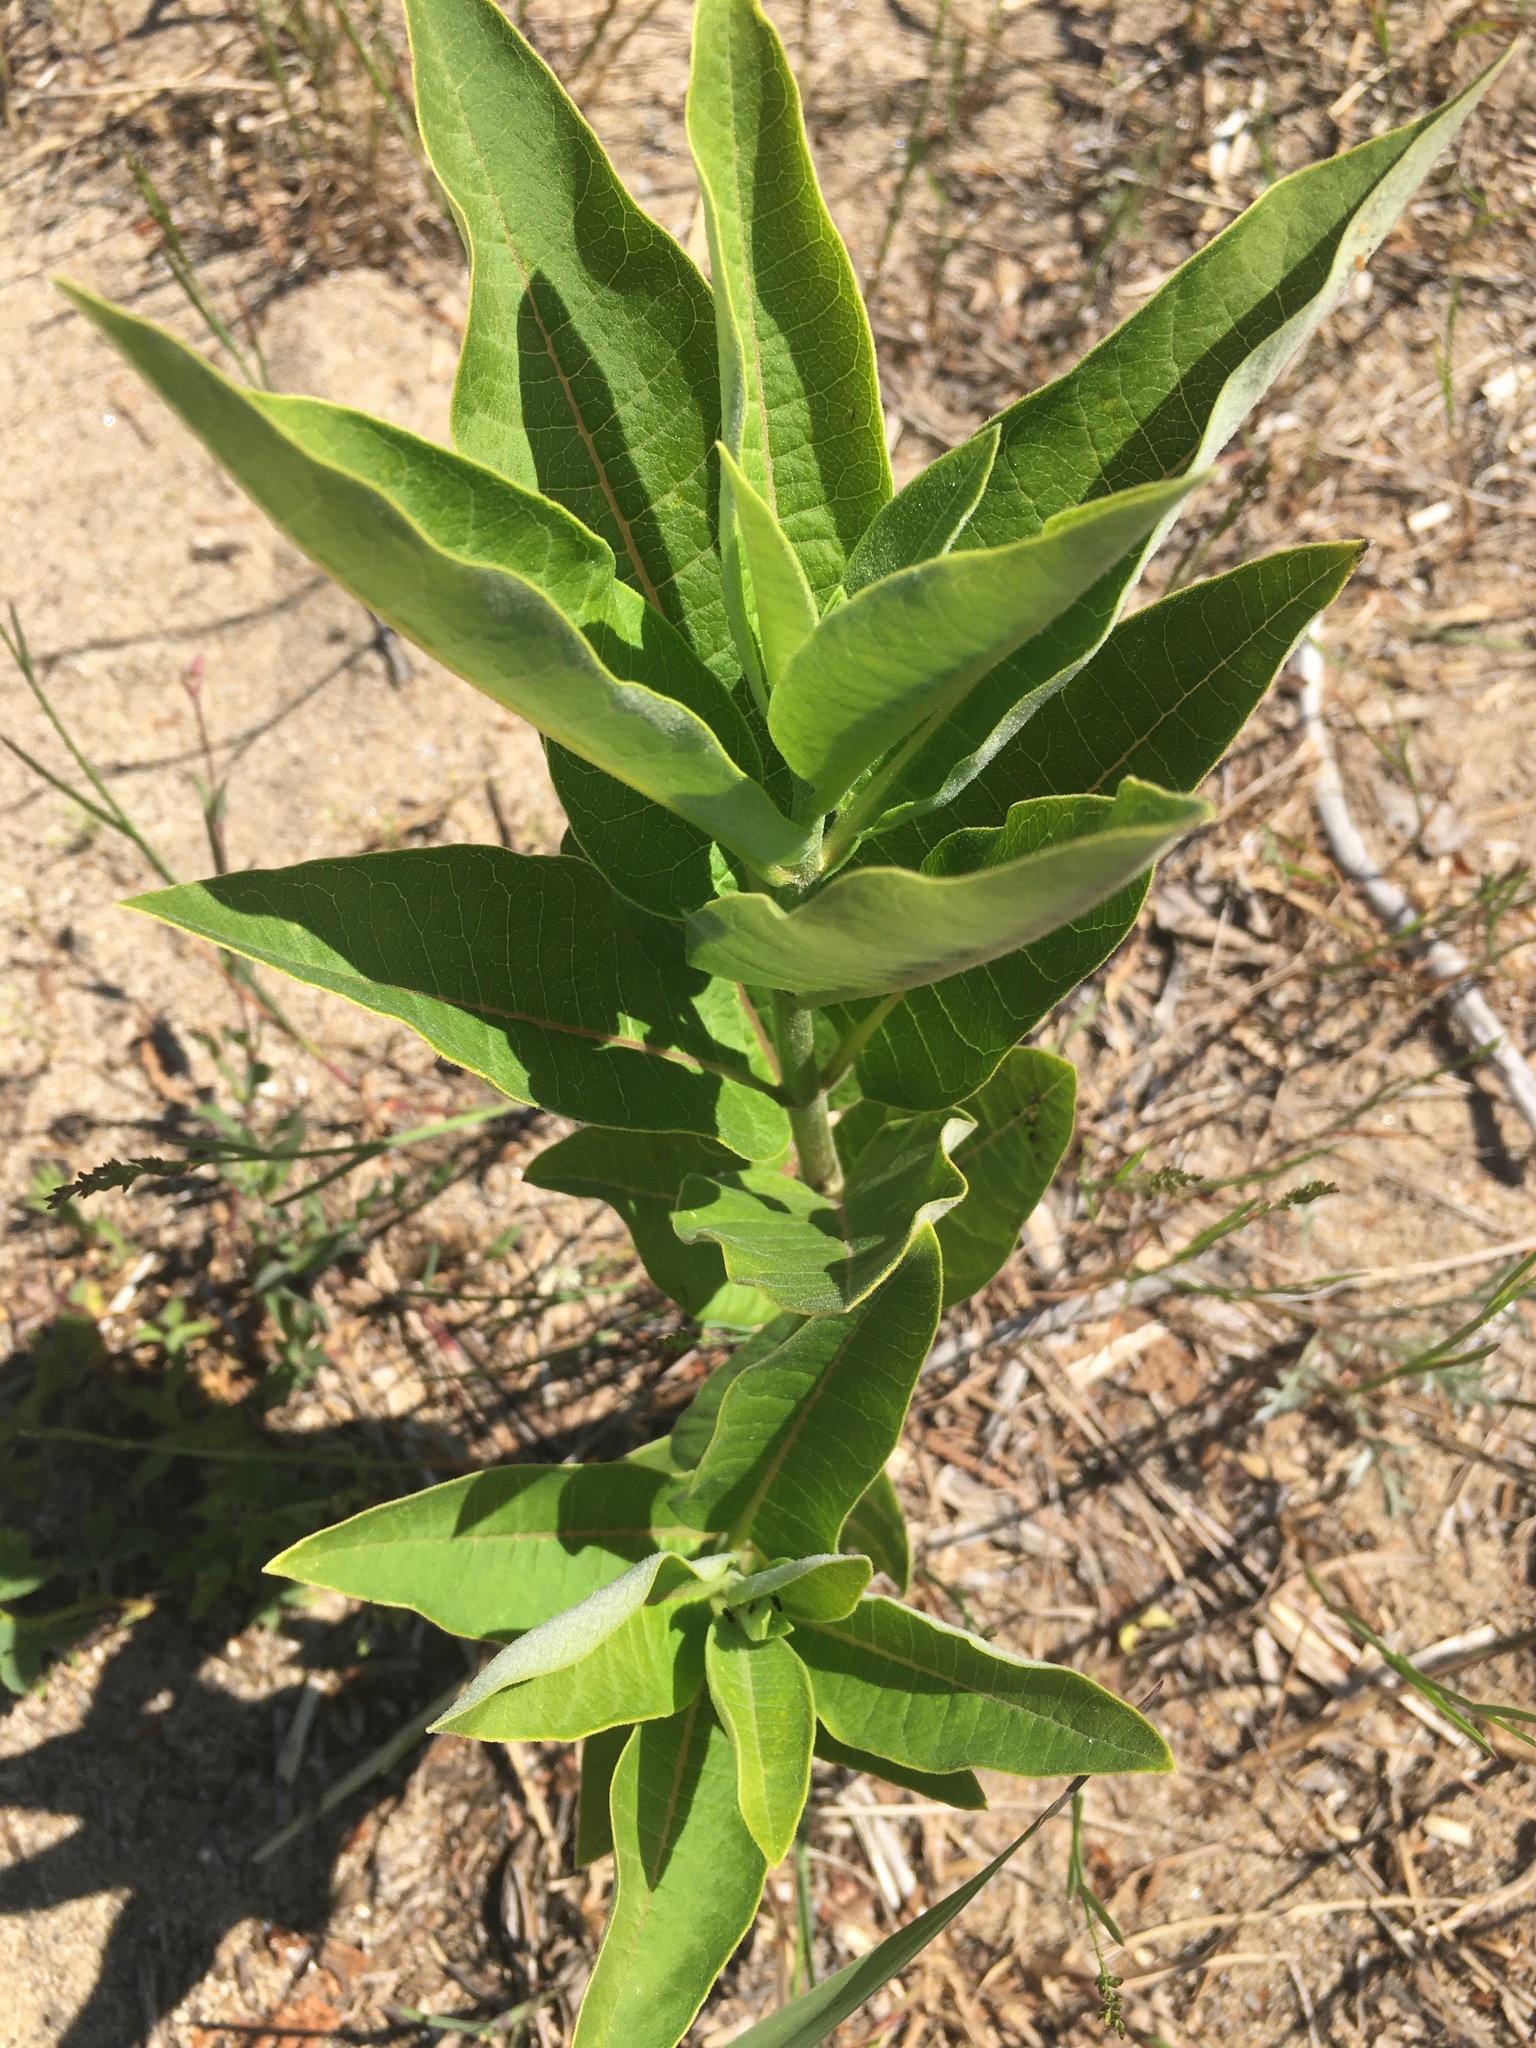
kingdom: Plantae
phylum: Tracheophyta
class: Magnoliopsida
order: Gentianales
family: Apocynaceae
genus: Asclepias
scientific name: Asclepias syriaca
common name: Common milkweed
